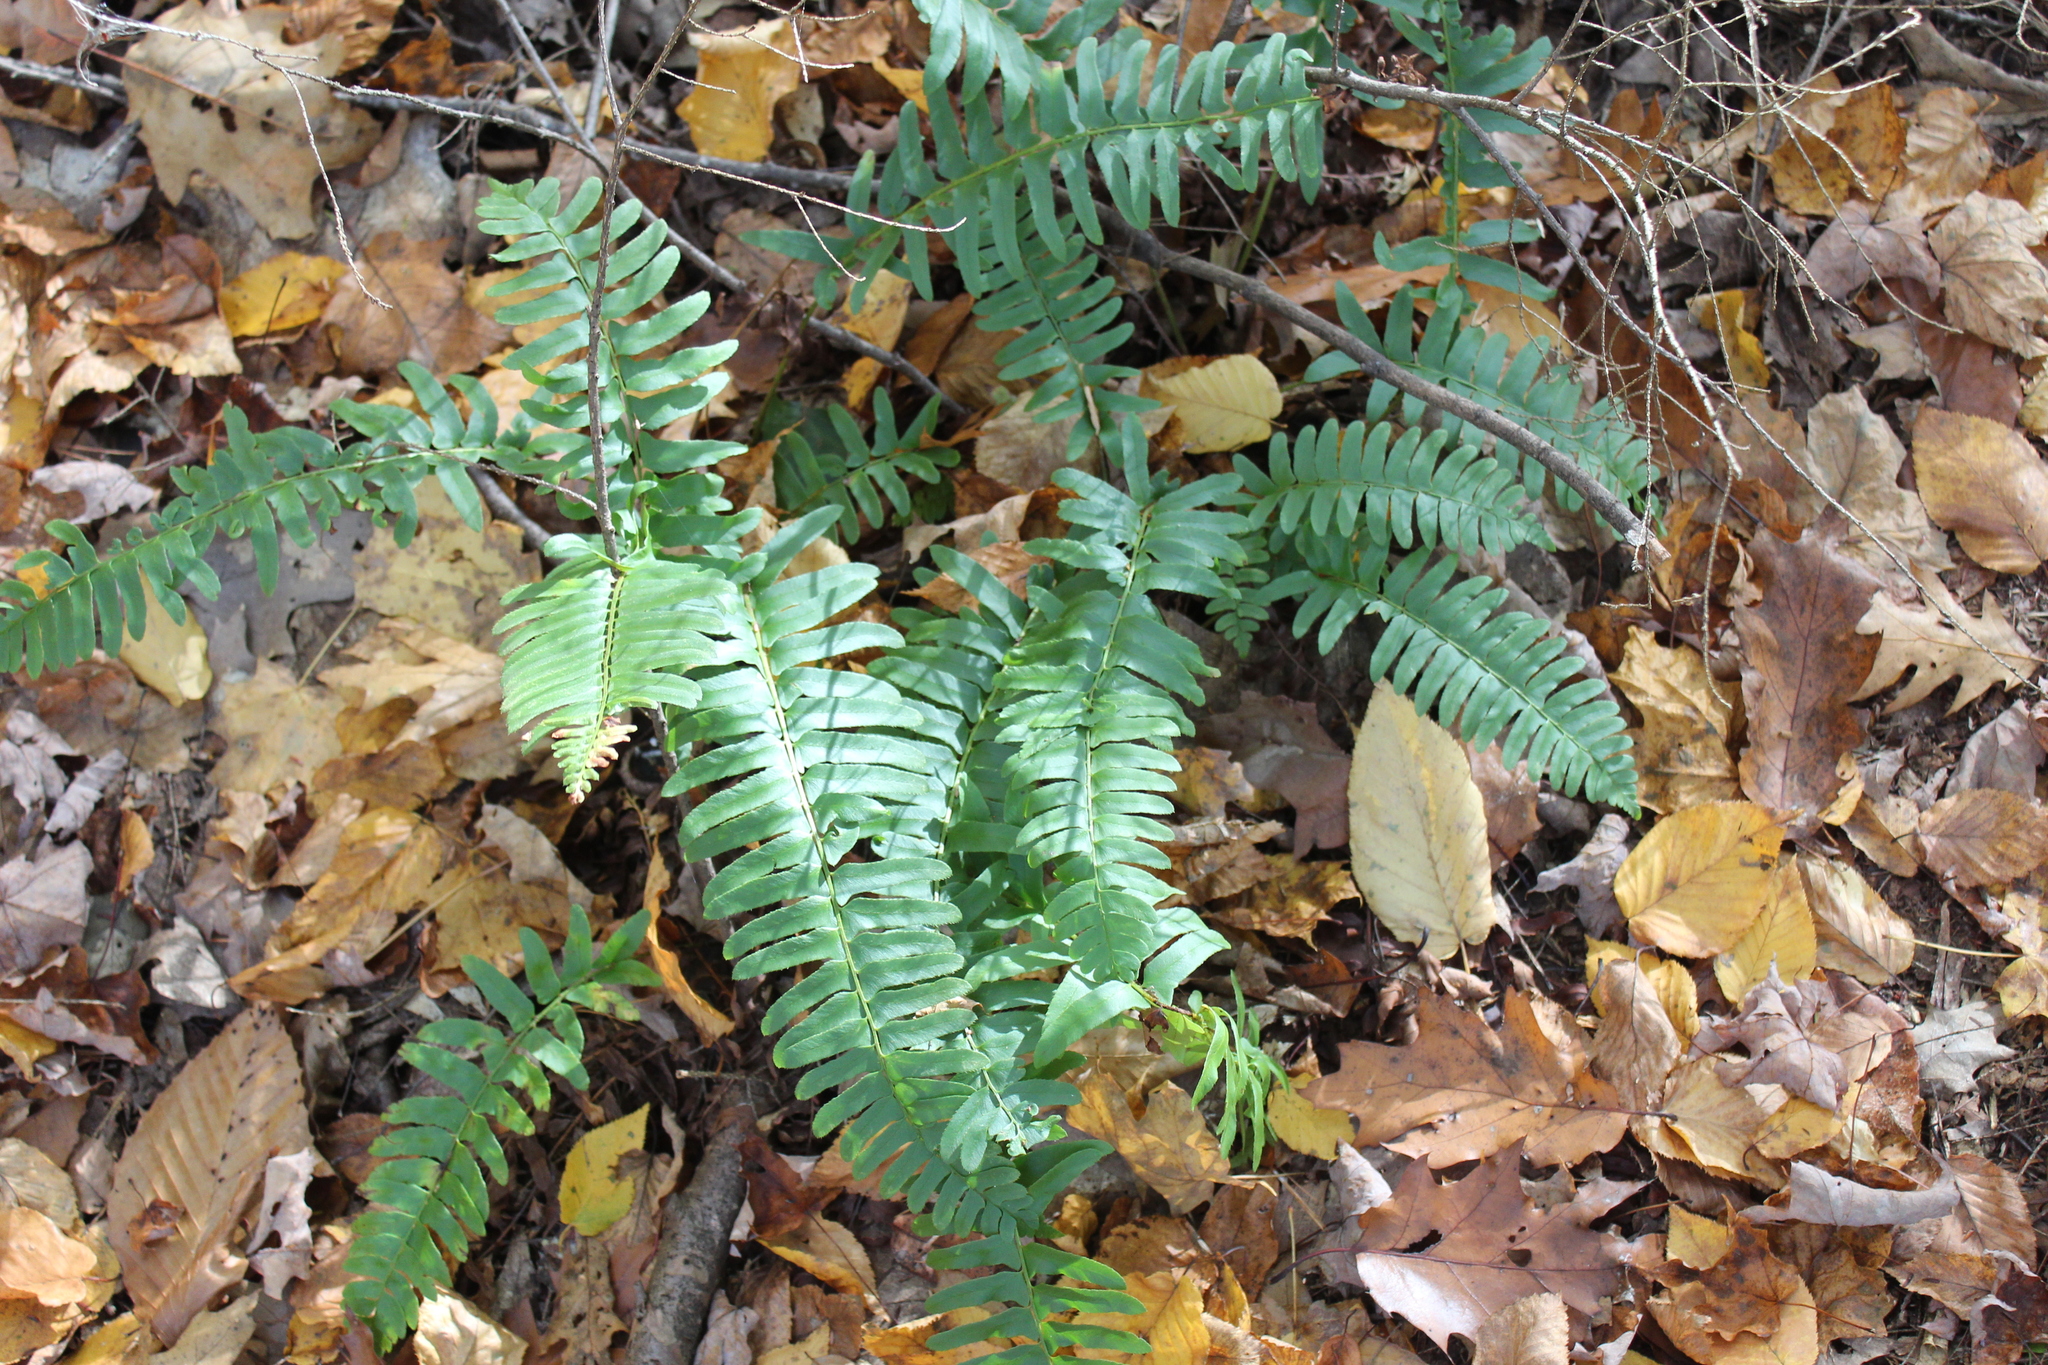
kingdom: Plantae
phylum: Tracheophyta
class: Polypodiopsida
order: Polypodiales
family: Dryopteridaceae
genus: Polystichum
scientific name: Polystichum acrostichoides
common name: Christmas fern
